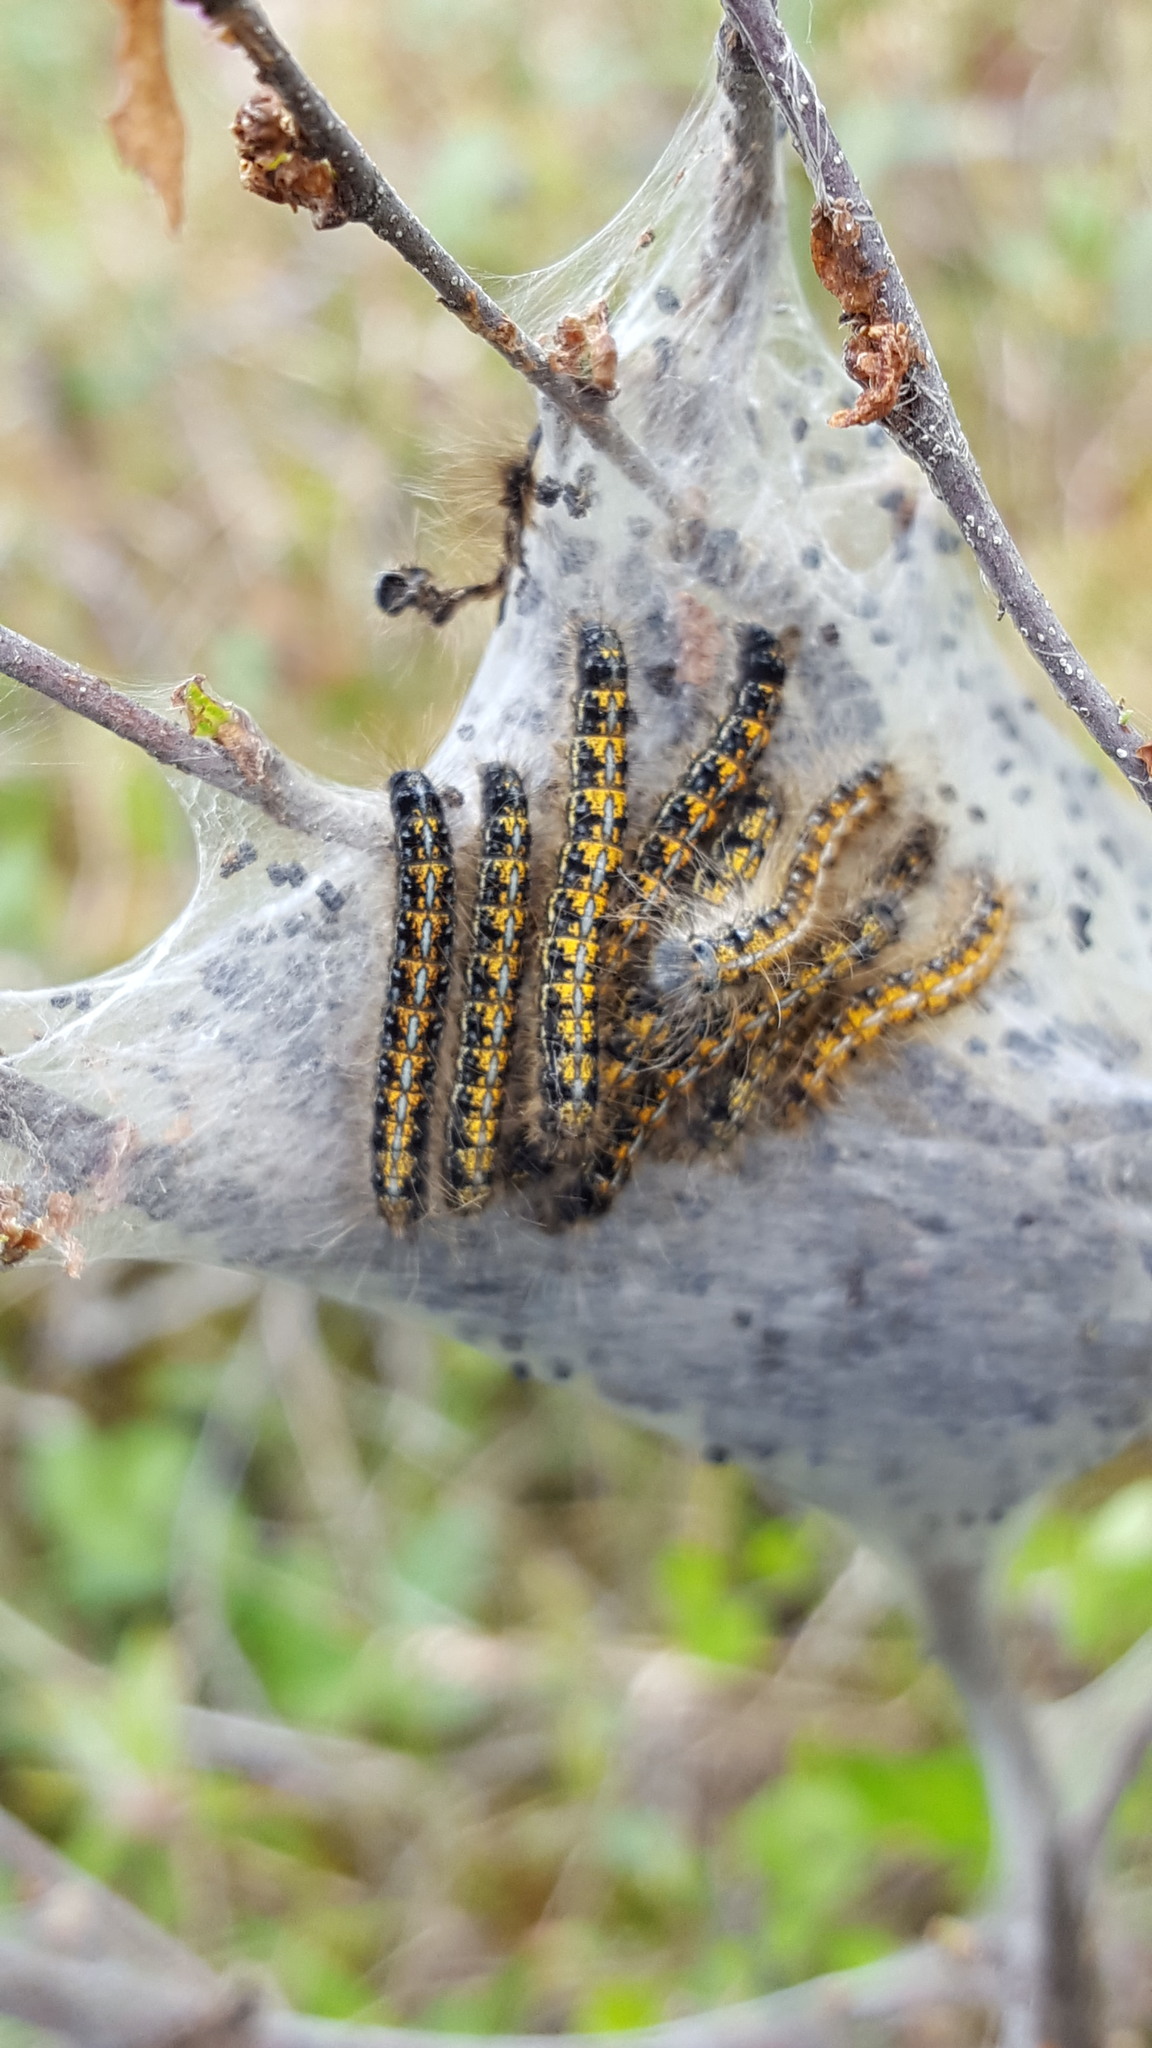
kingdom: Animalia
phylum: Arthropoda
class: Insecta
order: Lepidoptera
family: Lasiocampidae
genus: Malacosoma
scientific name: Malacosoma californica
